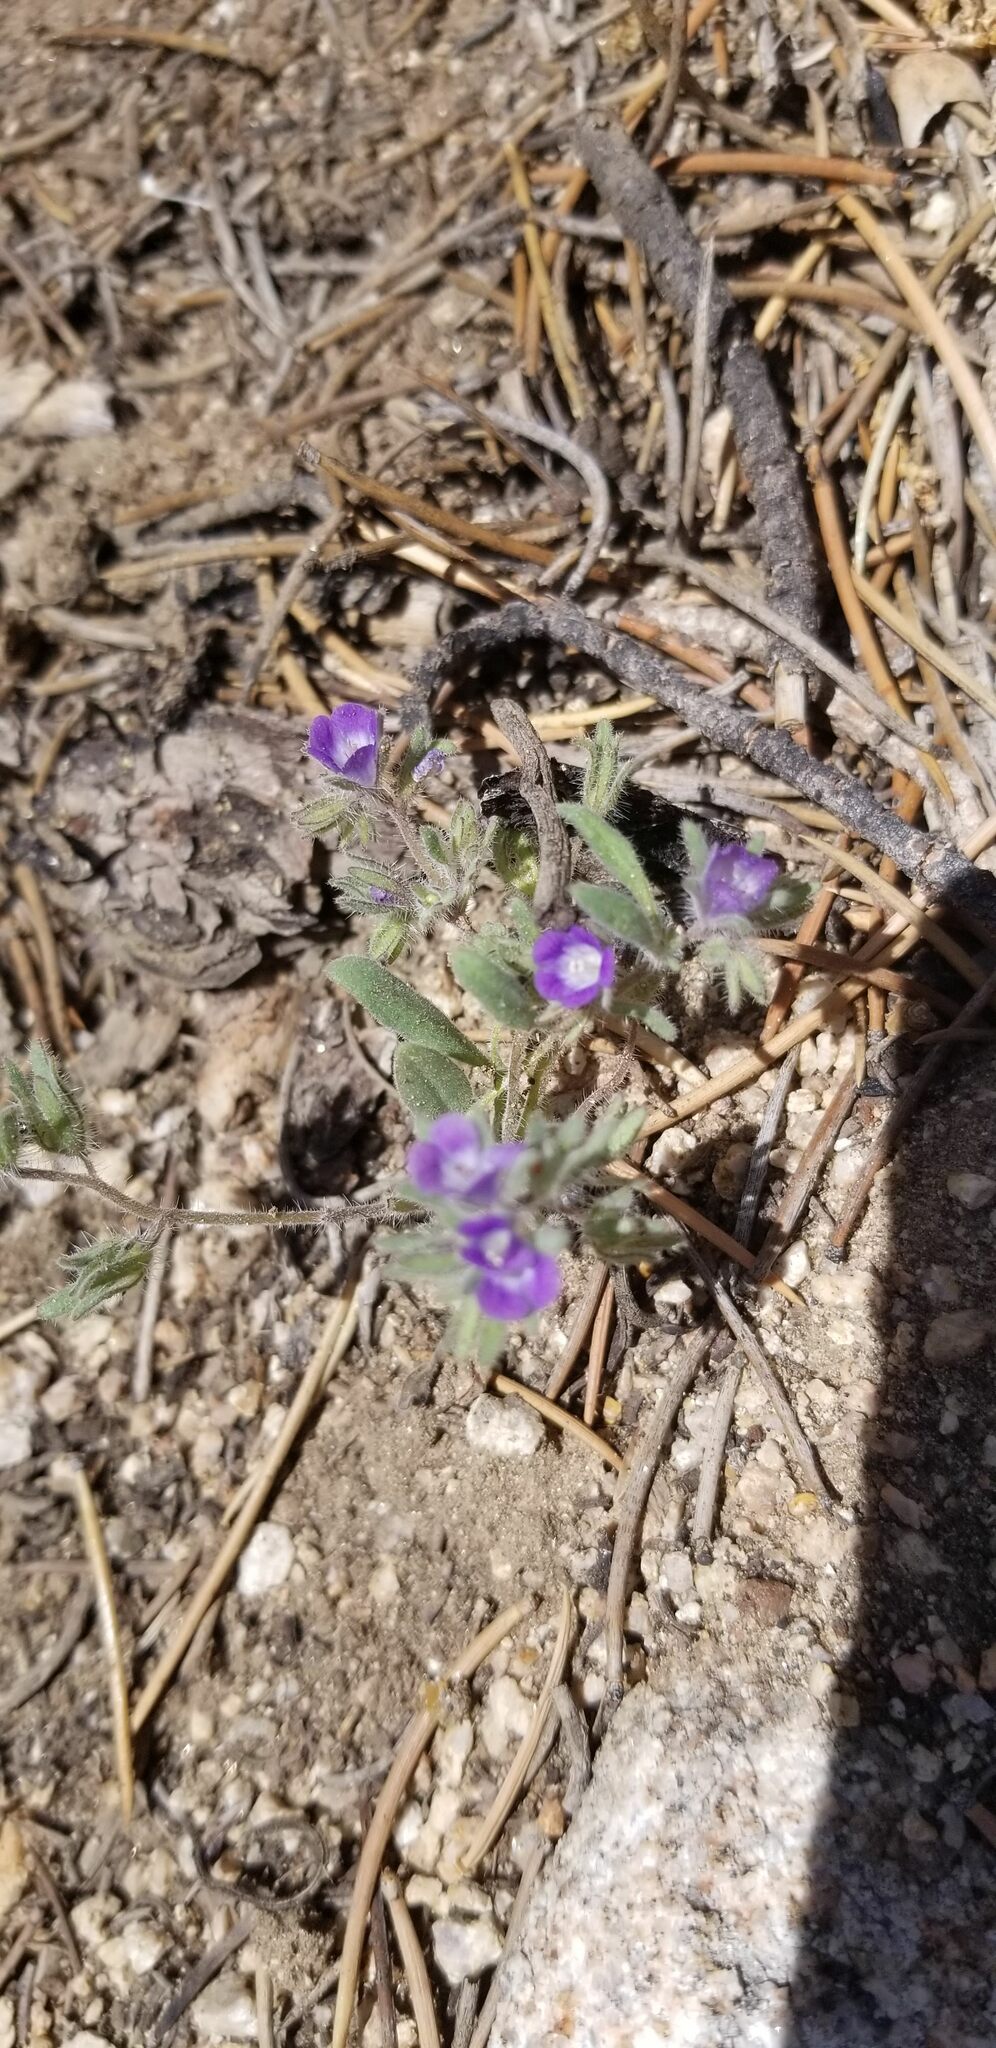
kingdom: Plantae
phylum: Tracheophyta
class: Magnoliopsida
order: Boraginales
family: Hydrophyllaceae
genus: Phacelia
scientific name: Phacelia curvipes
